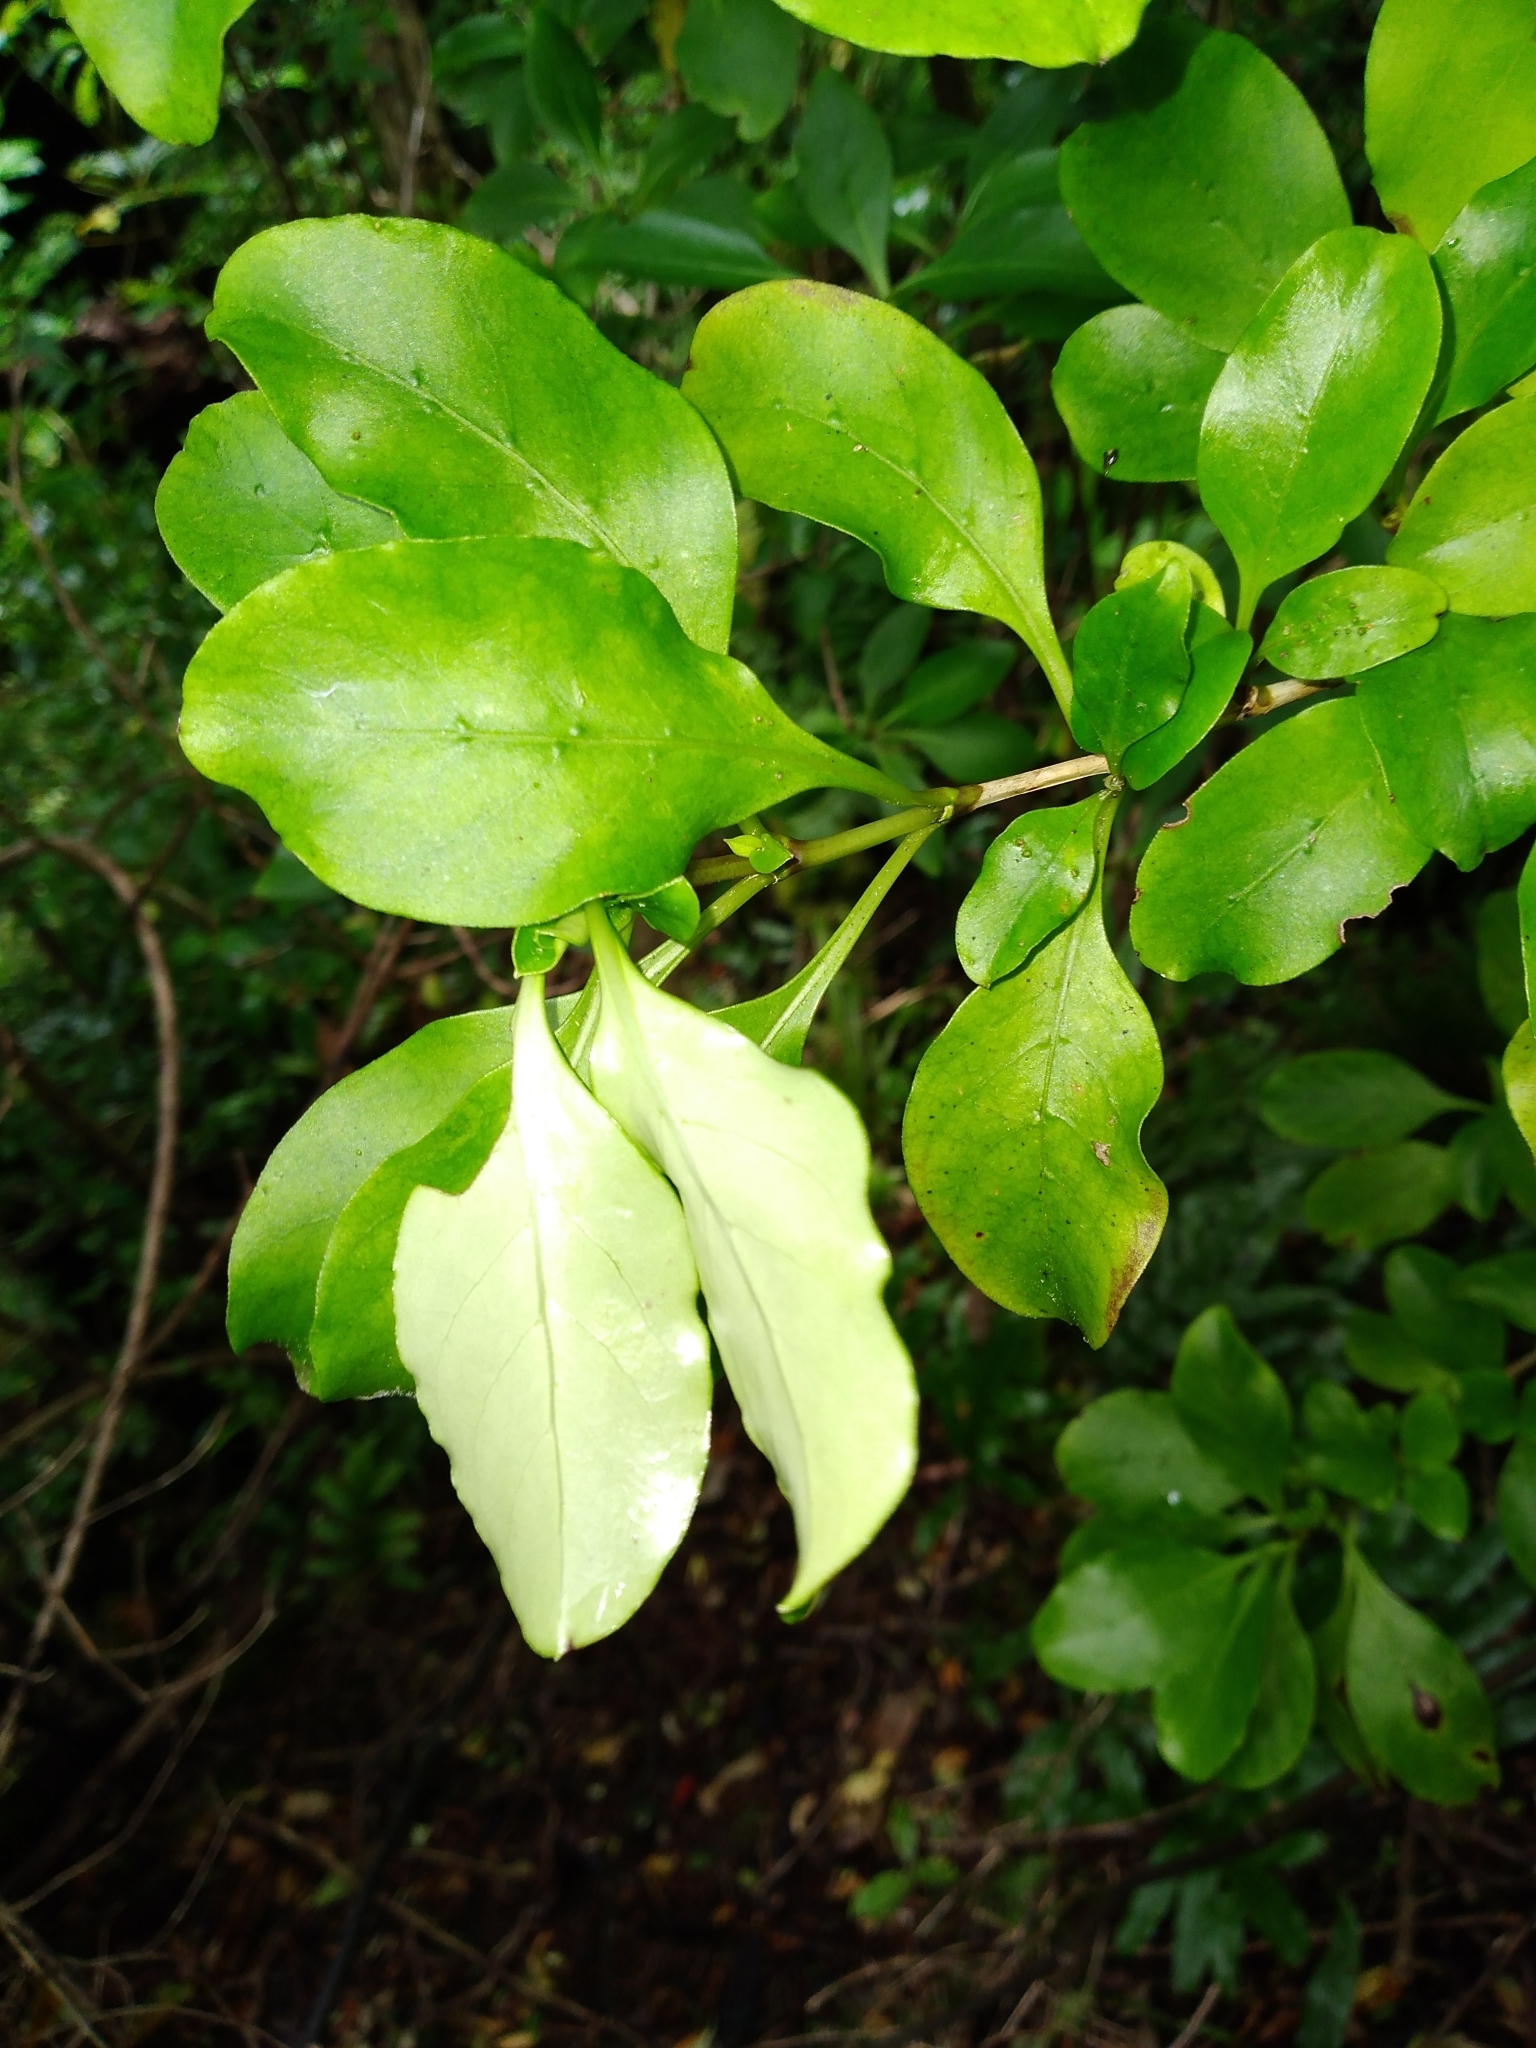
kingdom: Plantae
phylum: Tracheophyta
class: Magnoliopsida
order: Gentianales
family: Rubiaceae
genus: Coprosma
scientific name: Coprosma foetidissima
